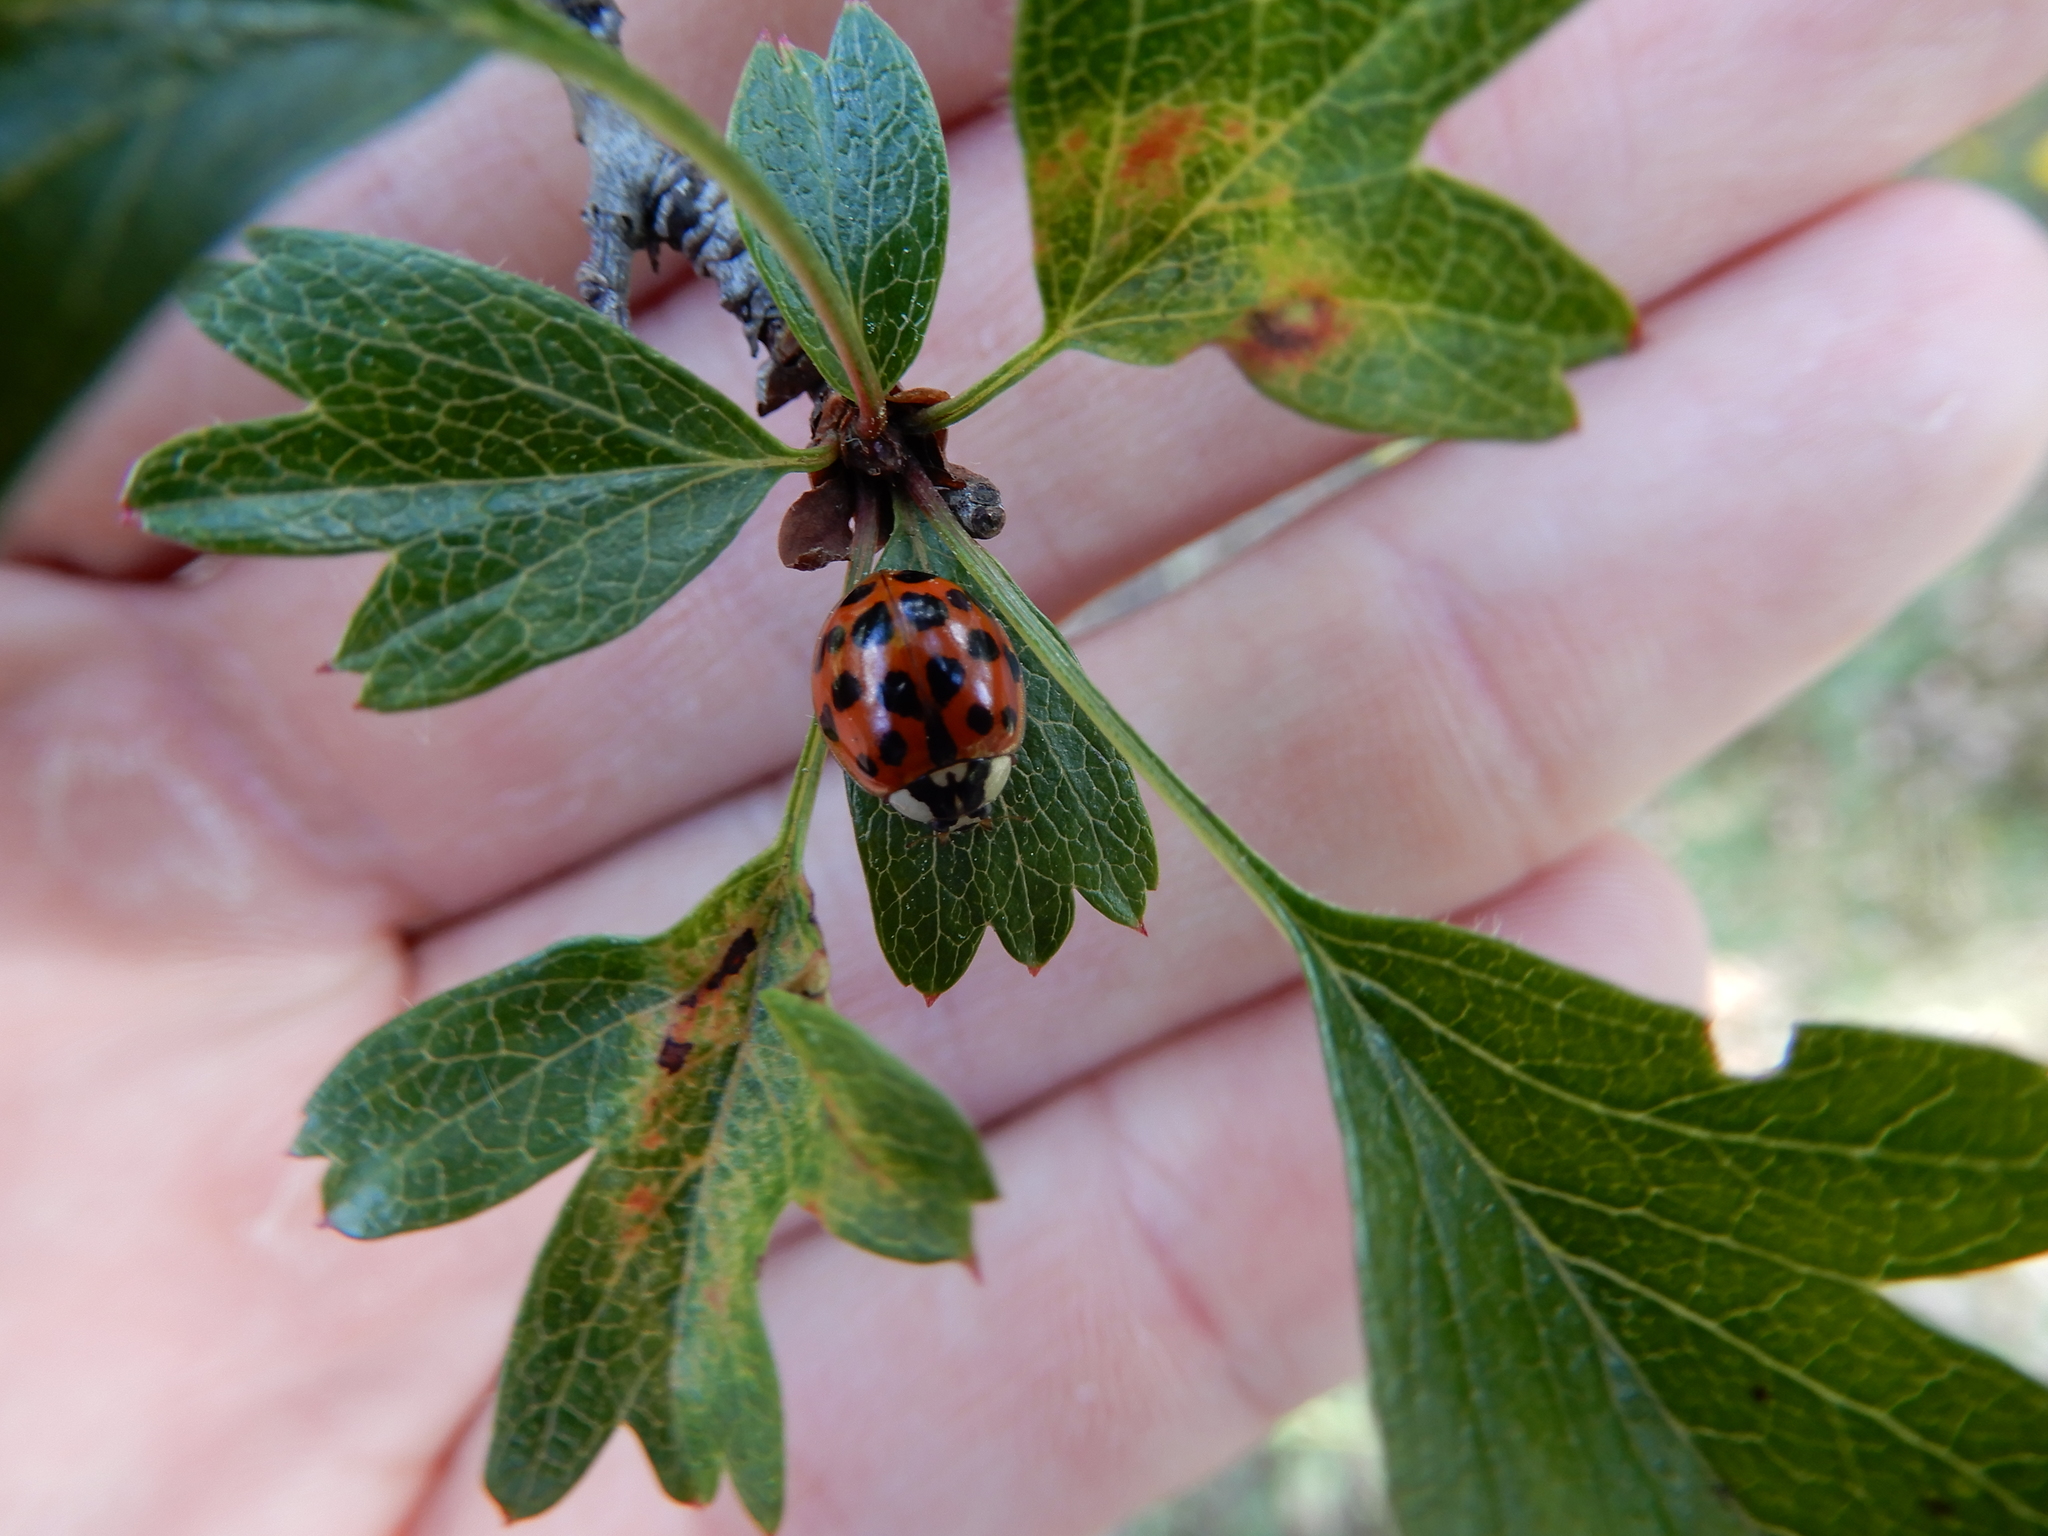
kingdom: Animalia
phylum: Arthropoda
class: Insecta
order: Coleoptera
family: Coccinellidae
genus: Harmonia
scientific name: Harmonia axyridis
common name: Harlequin ladybird
